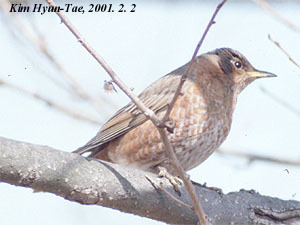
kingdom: Animalia
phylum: Chordata
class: Aves
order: Passeriformes
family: Turdidae
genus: Turdus
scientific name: Turdus naumanni
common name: Naumann's thrush
